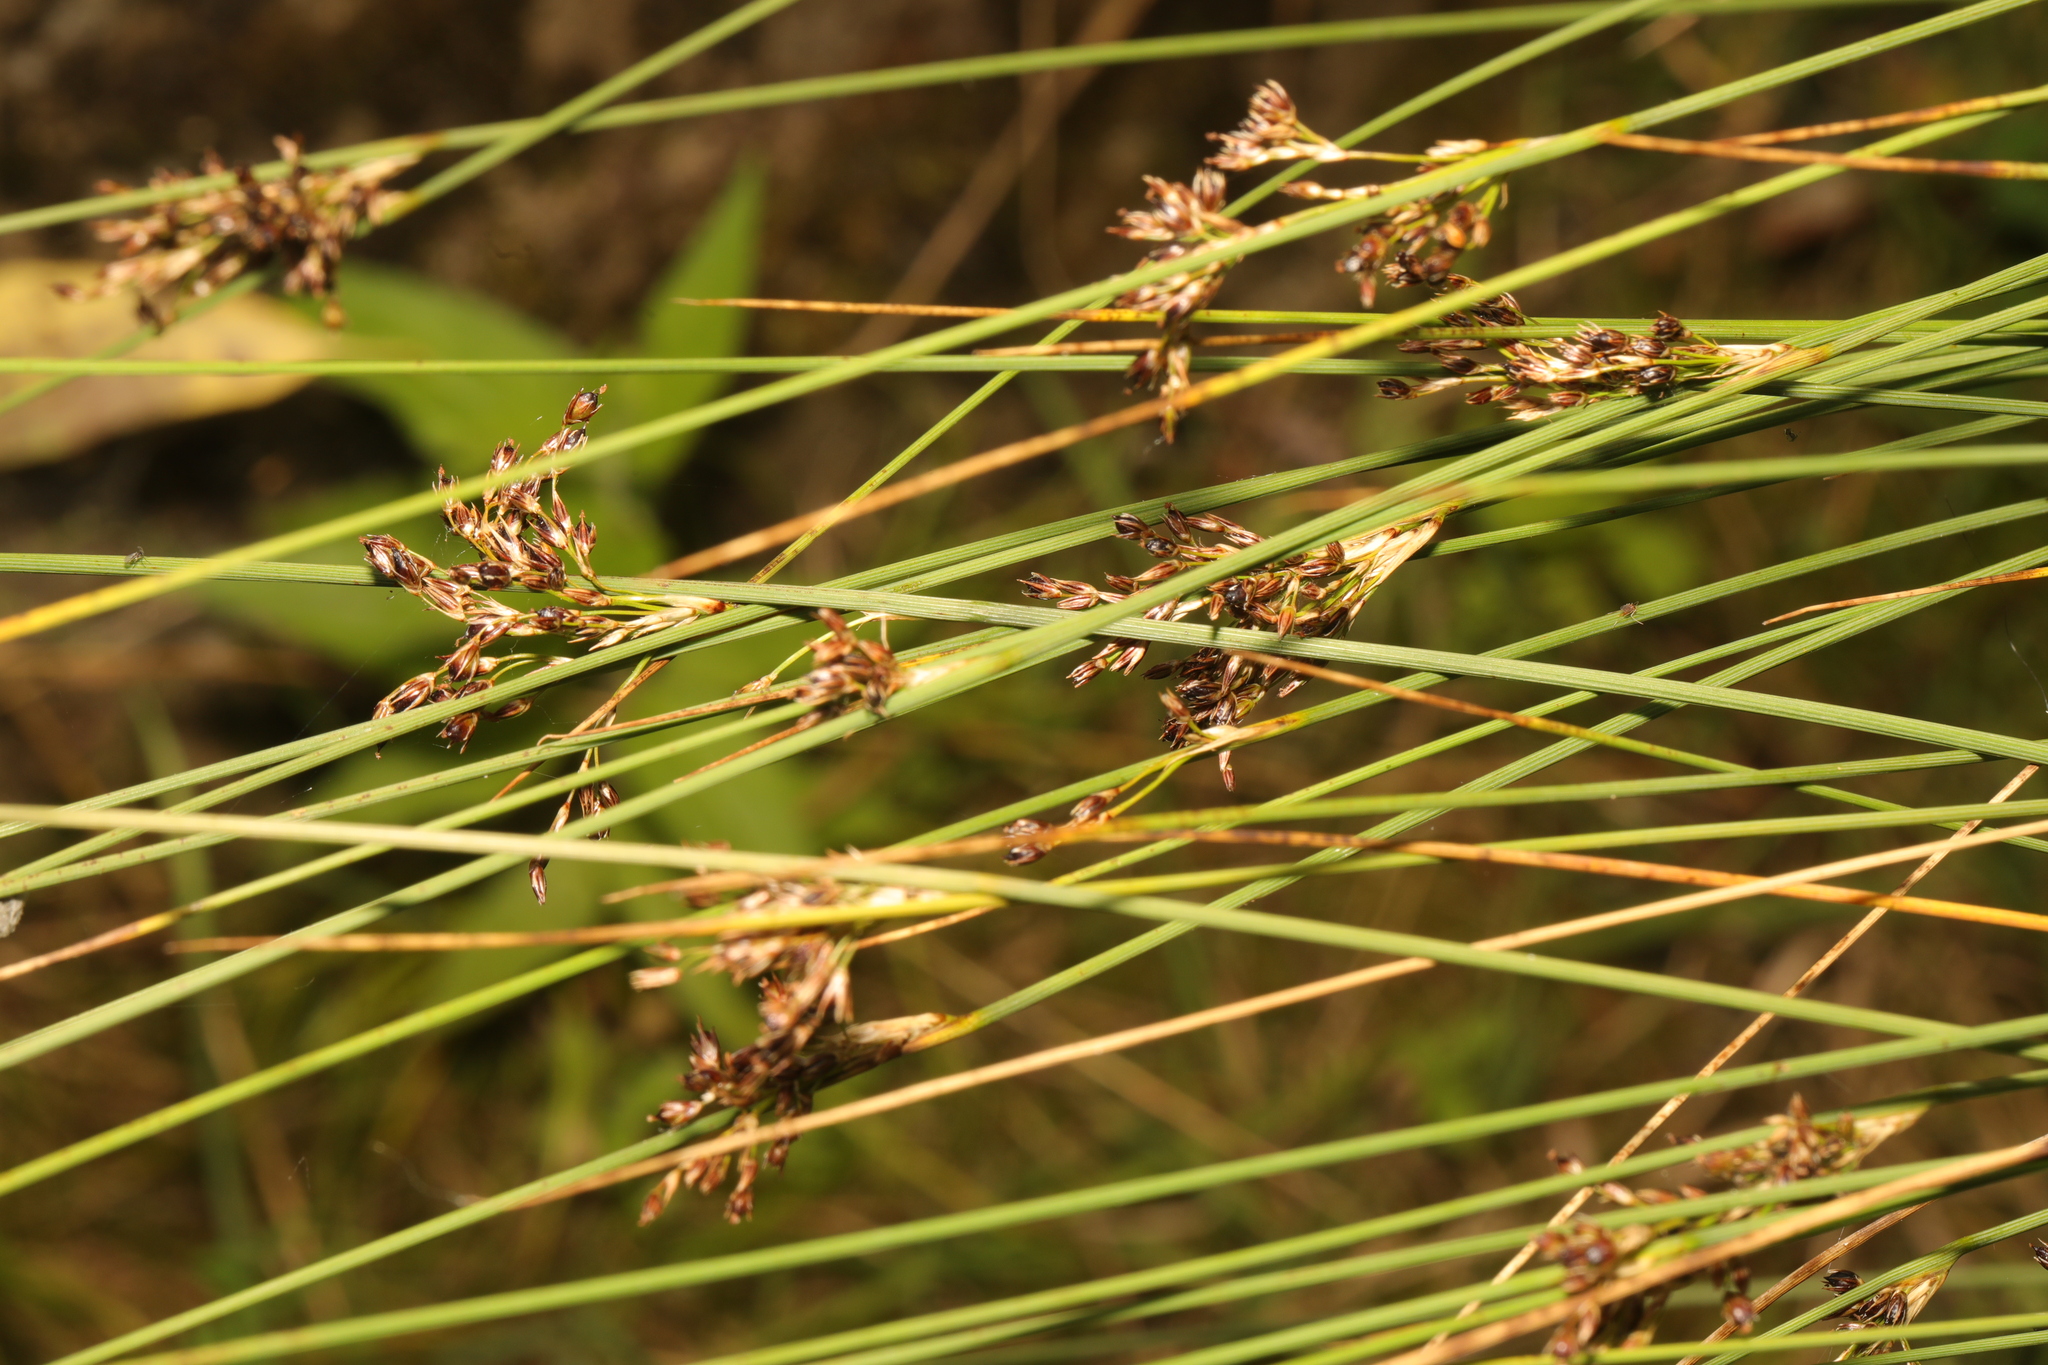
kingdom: Plantae
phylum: Tracheophyta
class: Liliopsida
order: Poales
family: Juncaceae
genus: Juncus
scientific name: Juncus inflexus
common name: Hard rush
